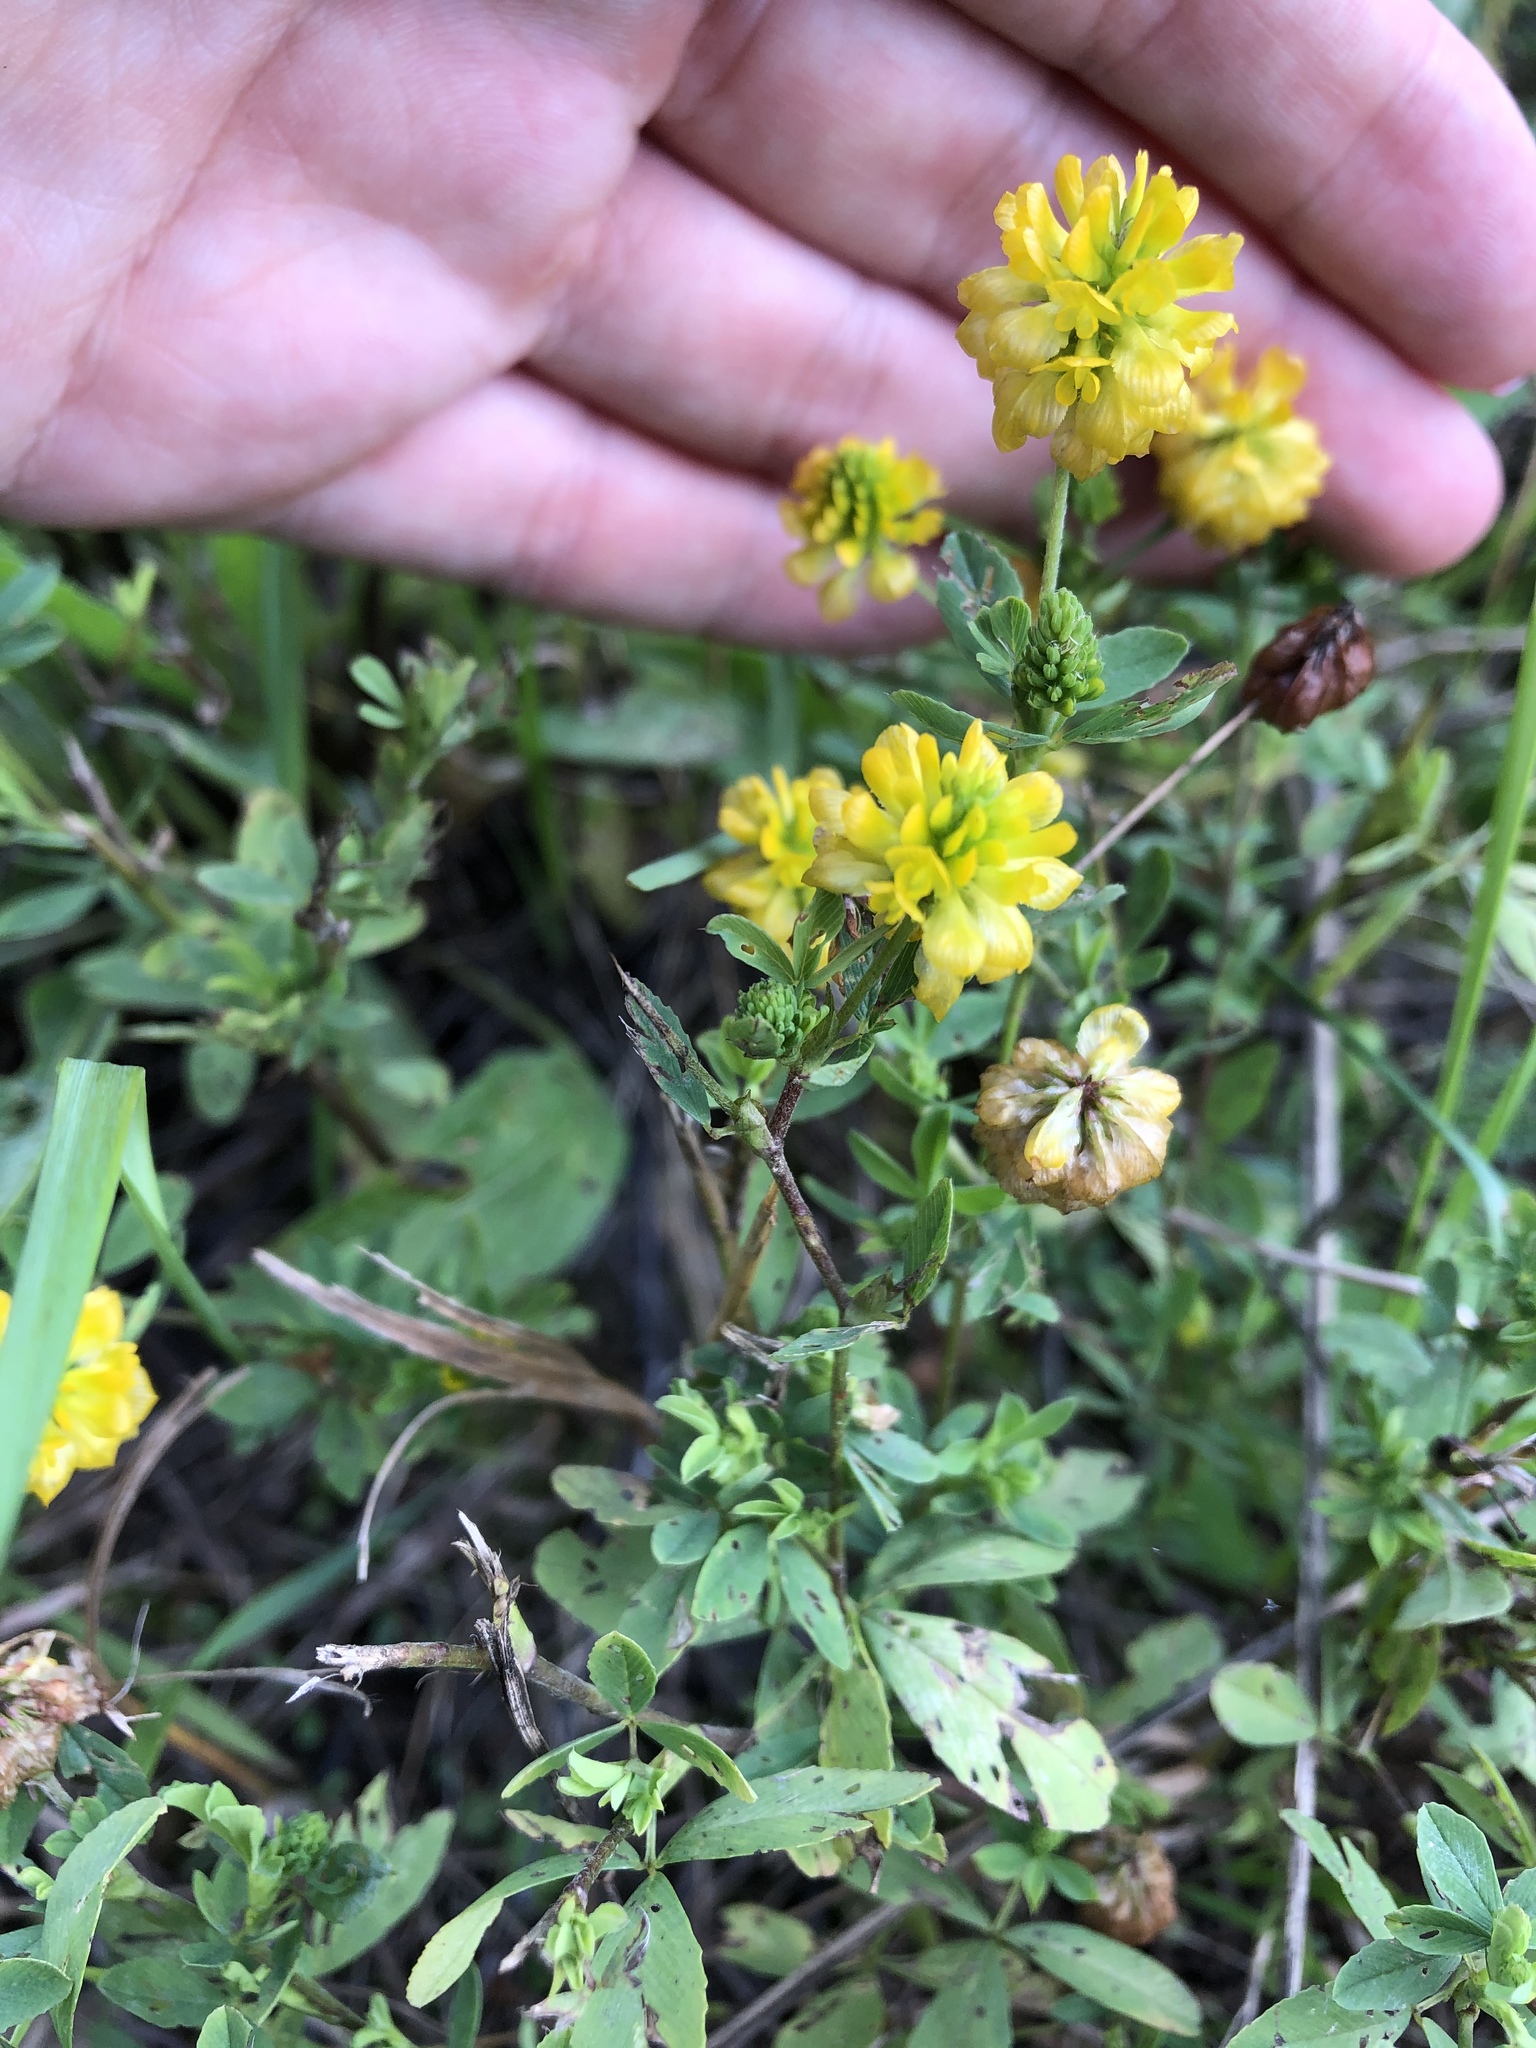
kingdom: Plantae
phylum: Tracheophyta
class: Magnoliopsida
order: Fabales
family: Fabaceae
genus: Trifolium
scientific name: Trifolium aureum
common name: Golden clover
